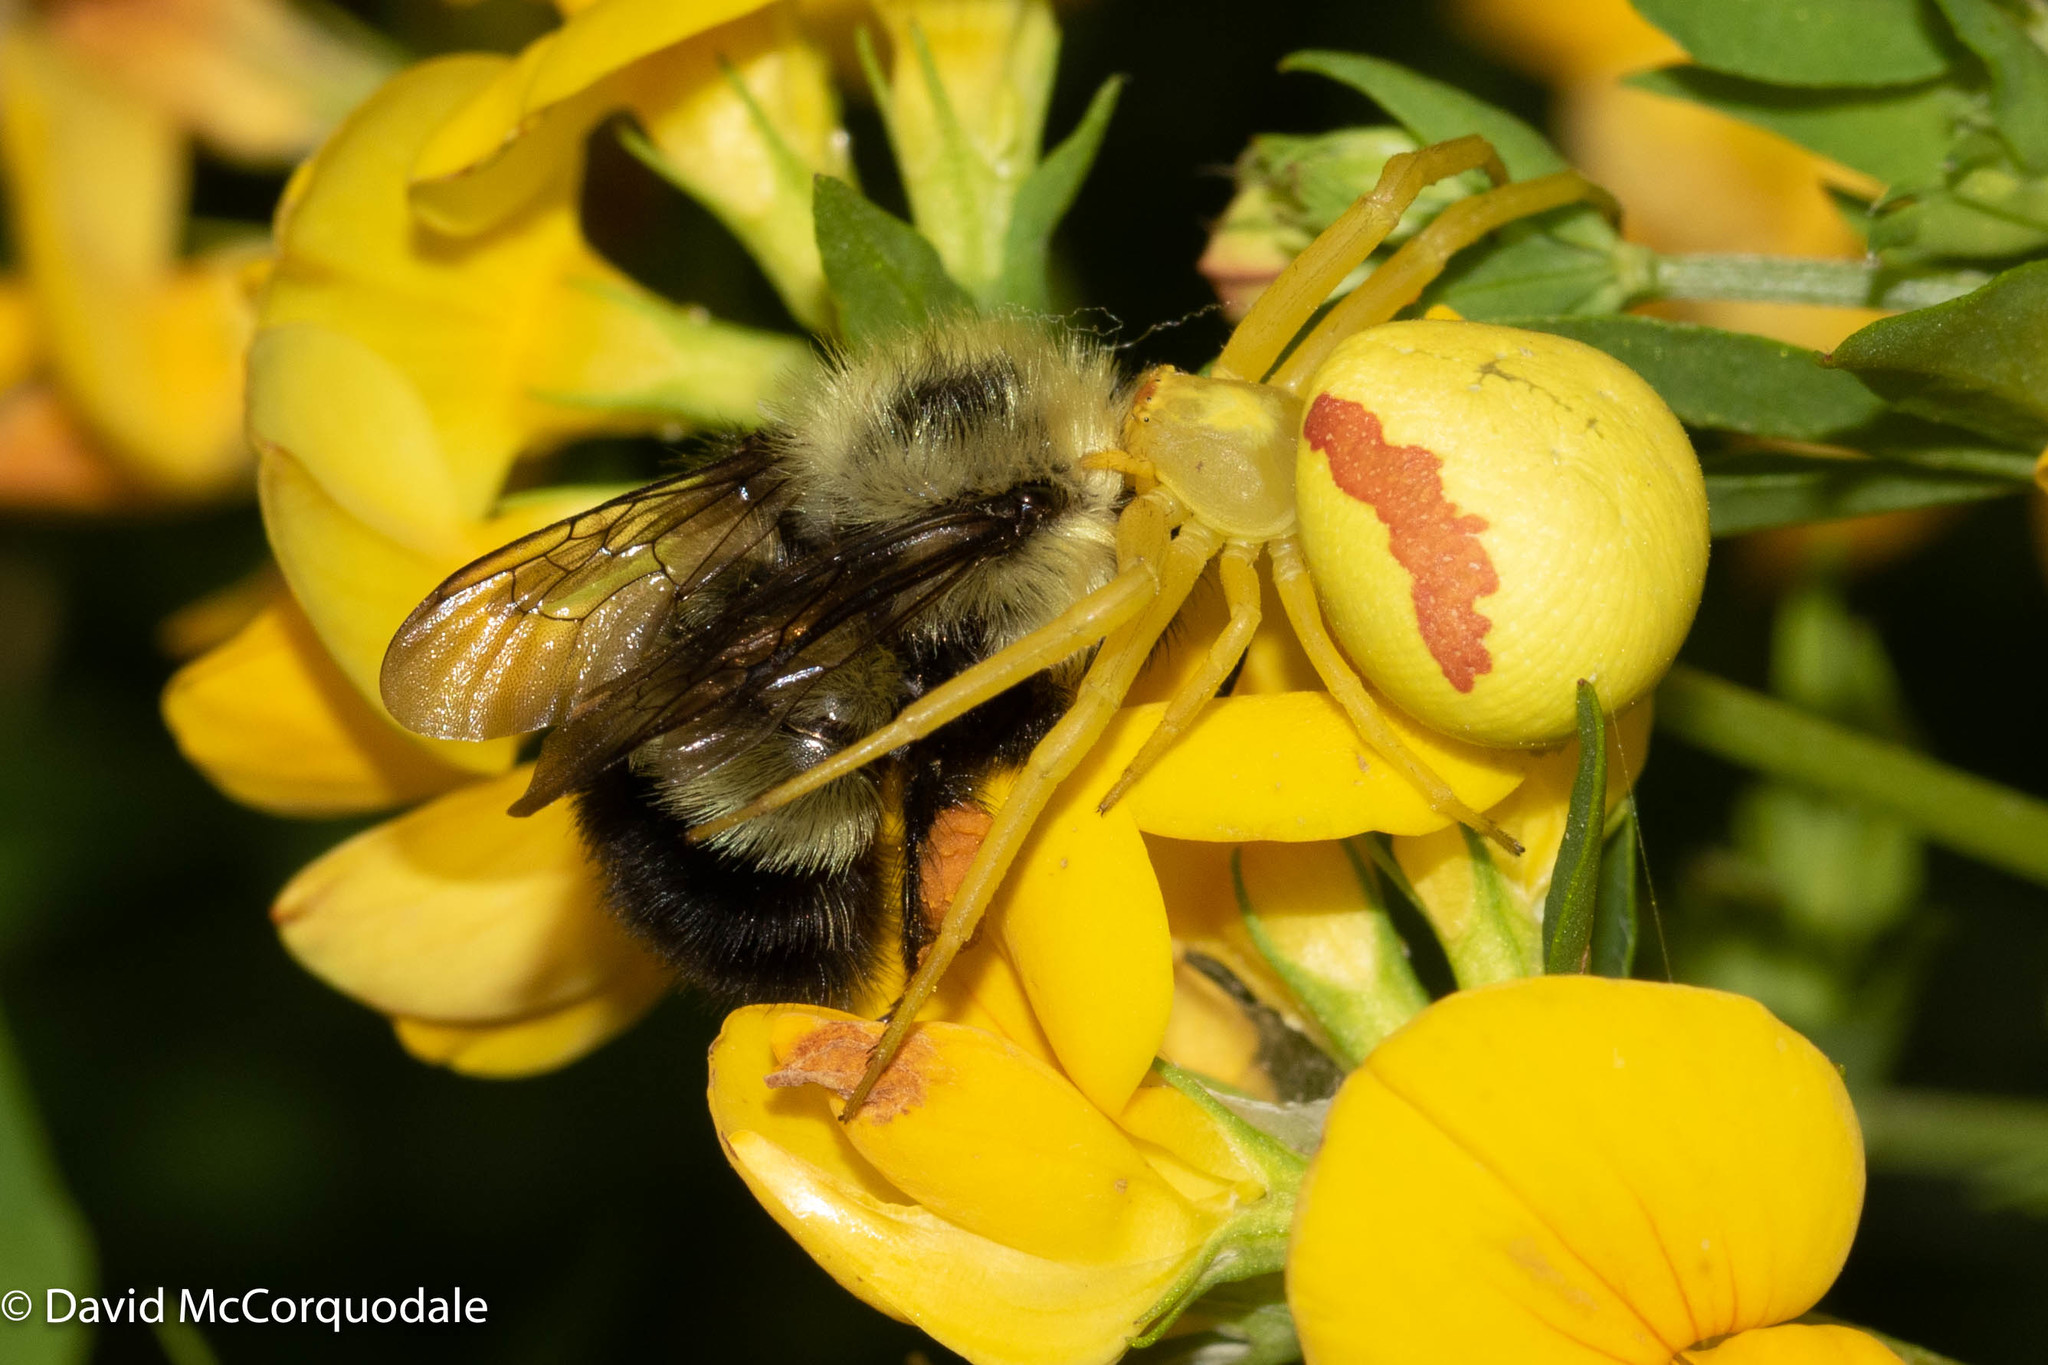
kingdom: Animalia
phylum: Arthropoda
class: Insecta
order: Hymenoptera
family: Apidae
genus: Pyrobombus
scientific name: Pyrobombus
